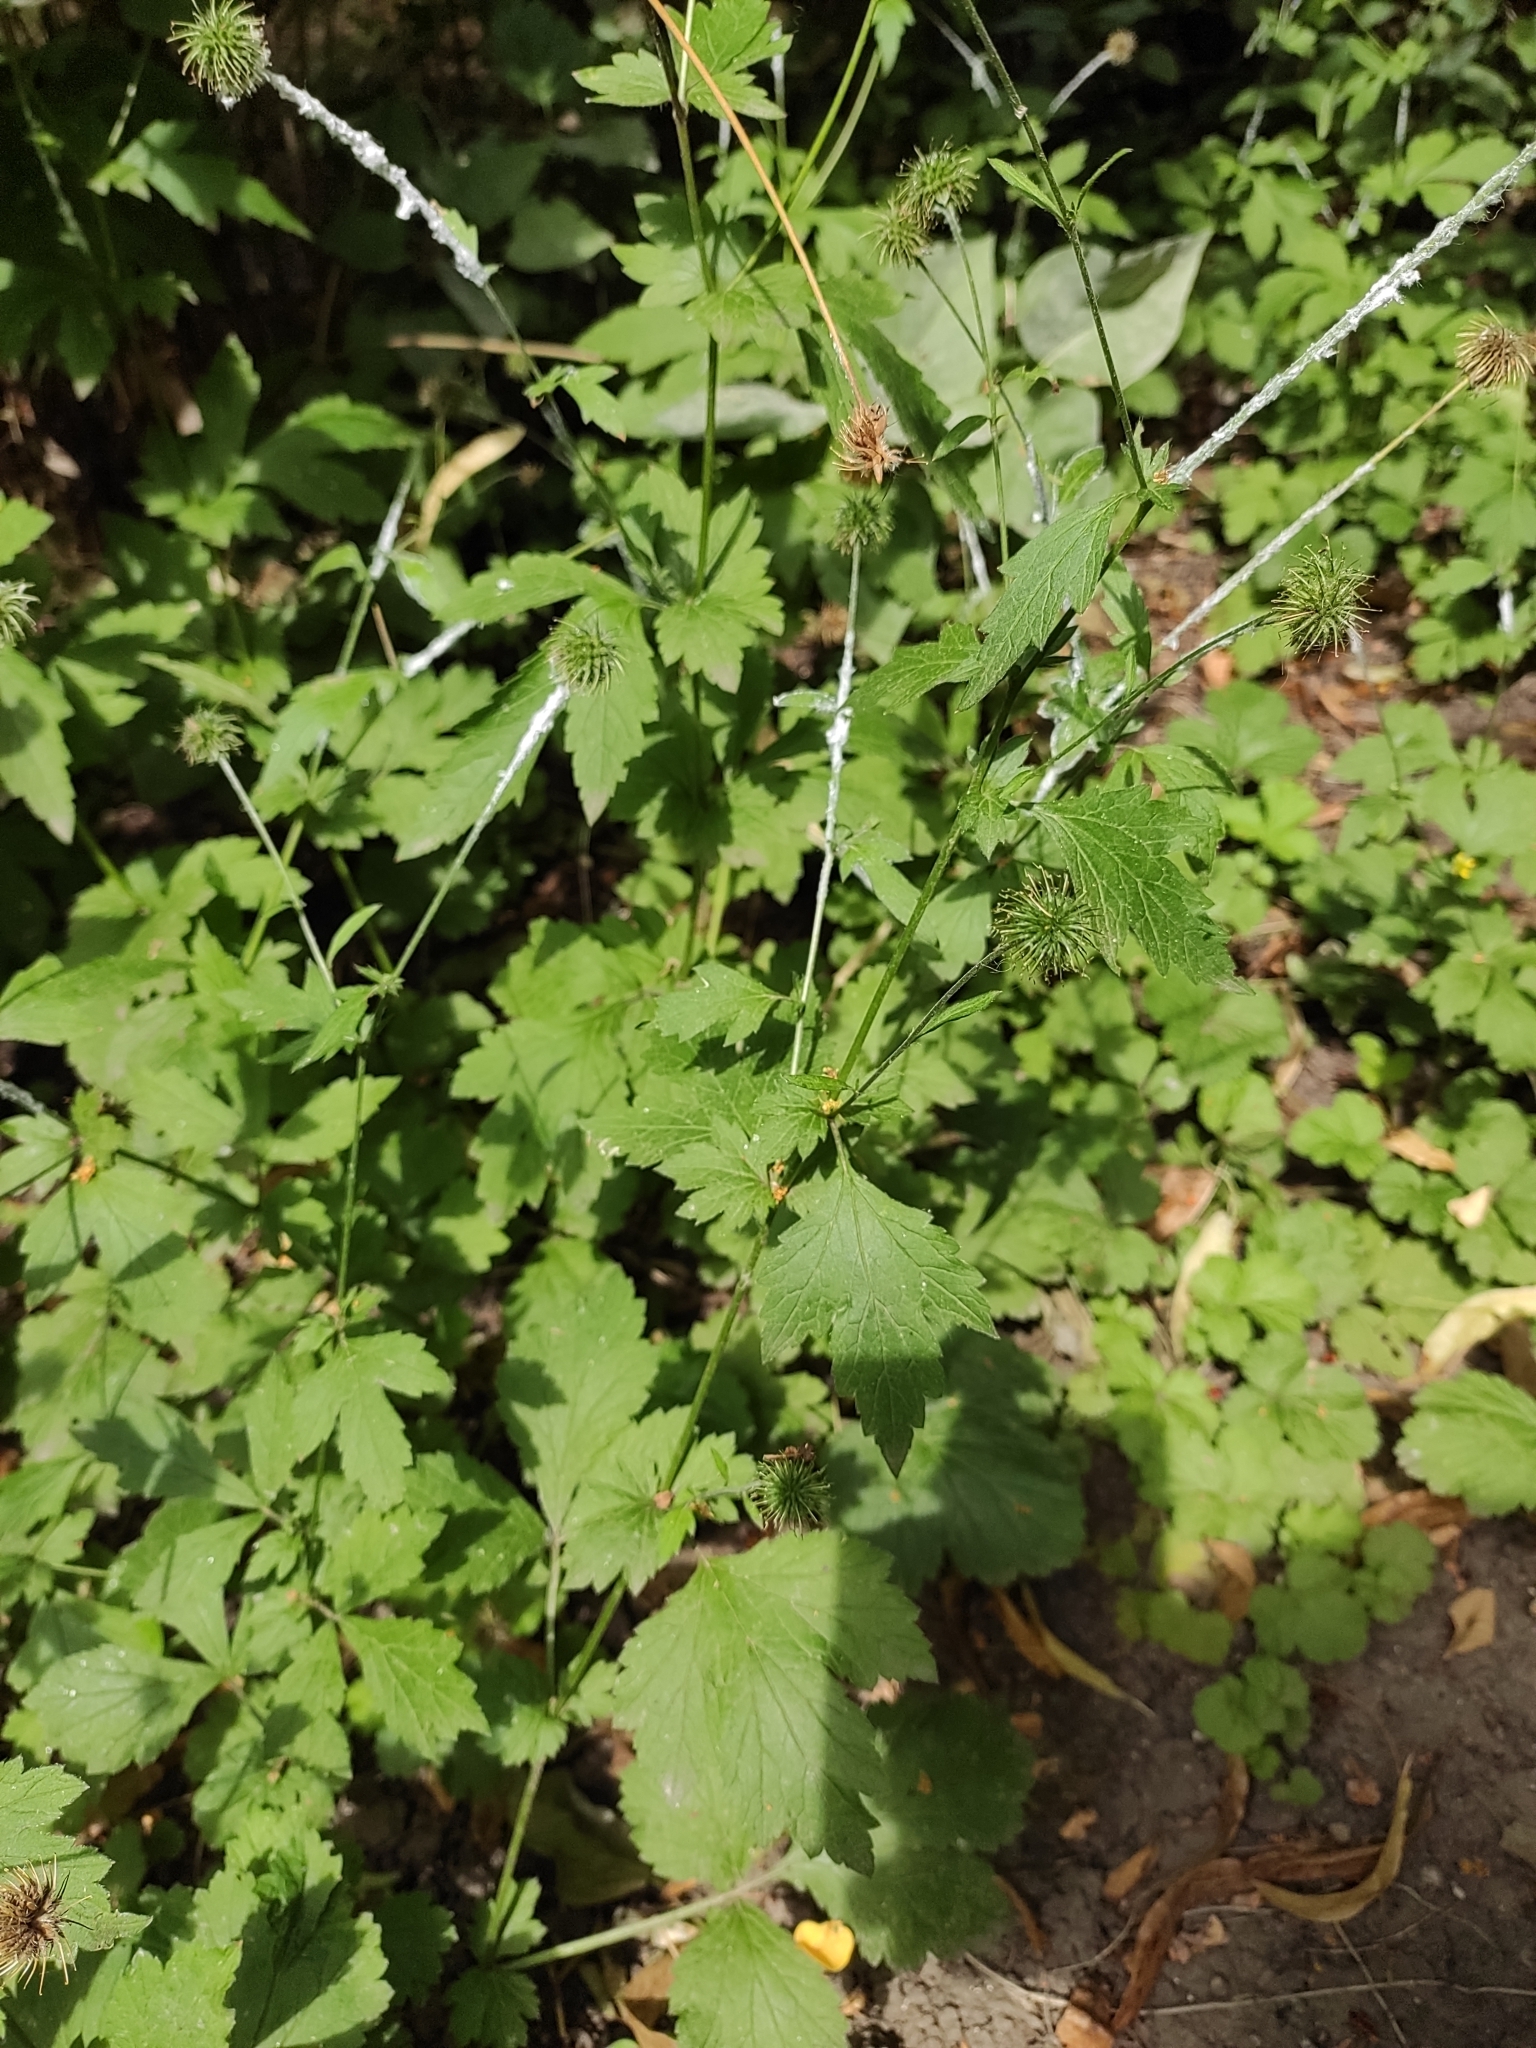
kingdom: Plantae
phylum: Tracheophyta
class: Magnoliopsida
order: Rosales
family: Rosaceae
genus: Geum
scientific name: Geum urbanum
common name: Wood avens
